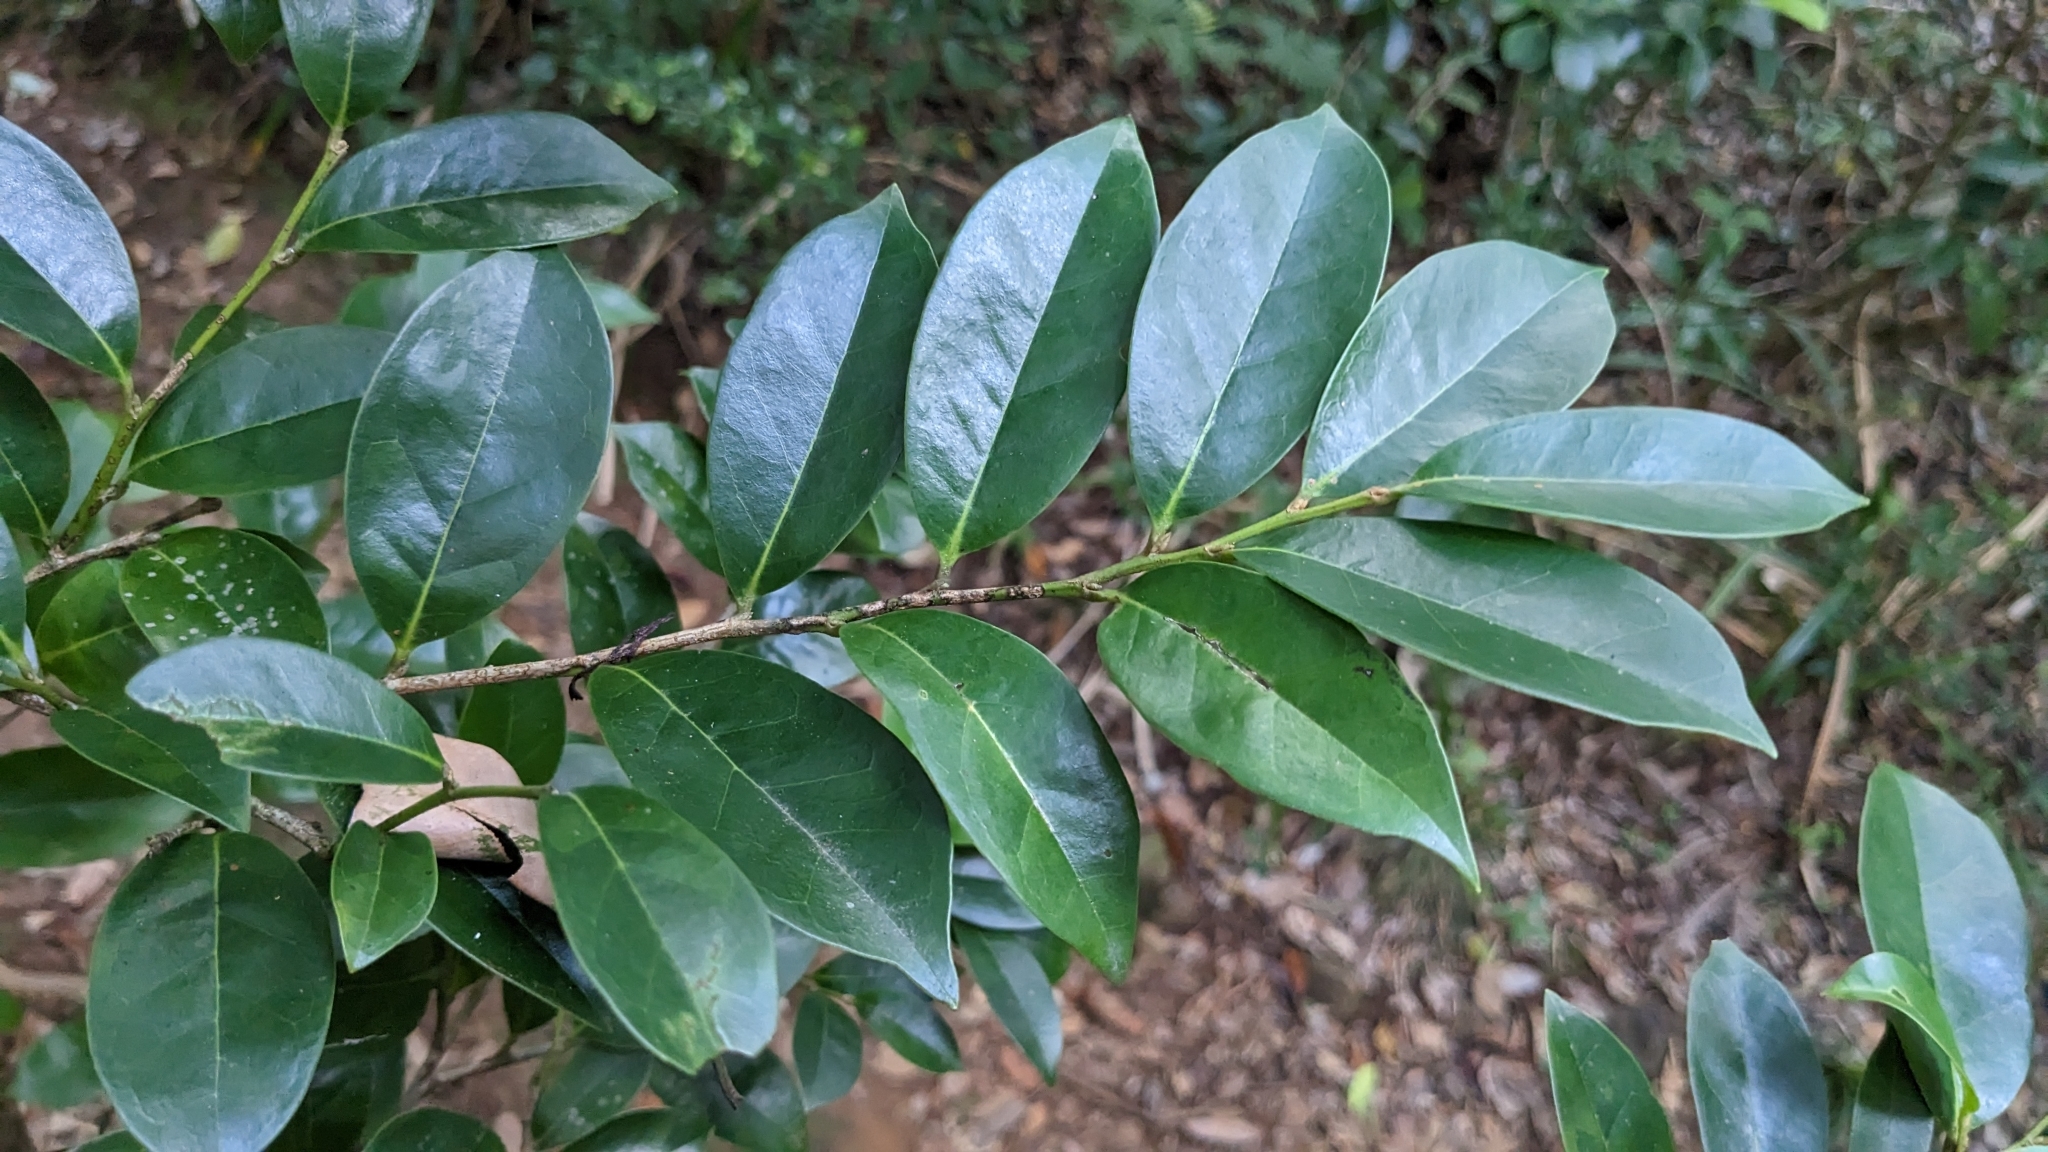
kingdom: Plantae
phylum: Tracheophyta
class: Magnoliopsida
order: Saxifragales
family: Hamamelidaceae
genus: Distylium
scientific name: Distylium racemosum
